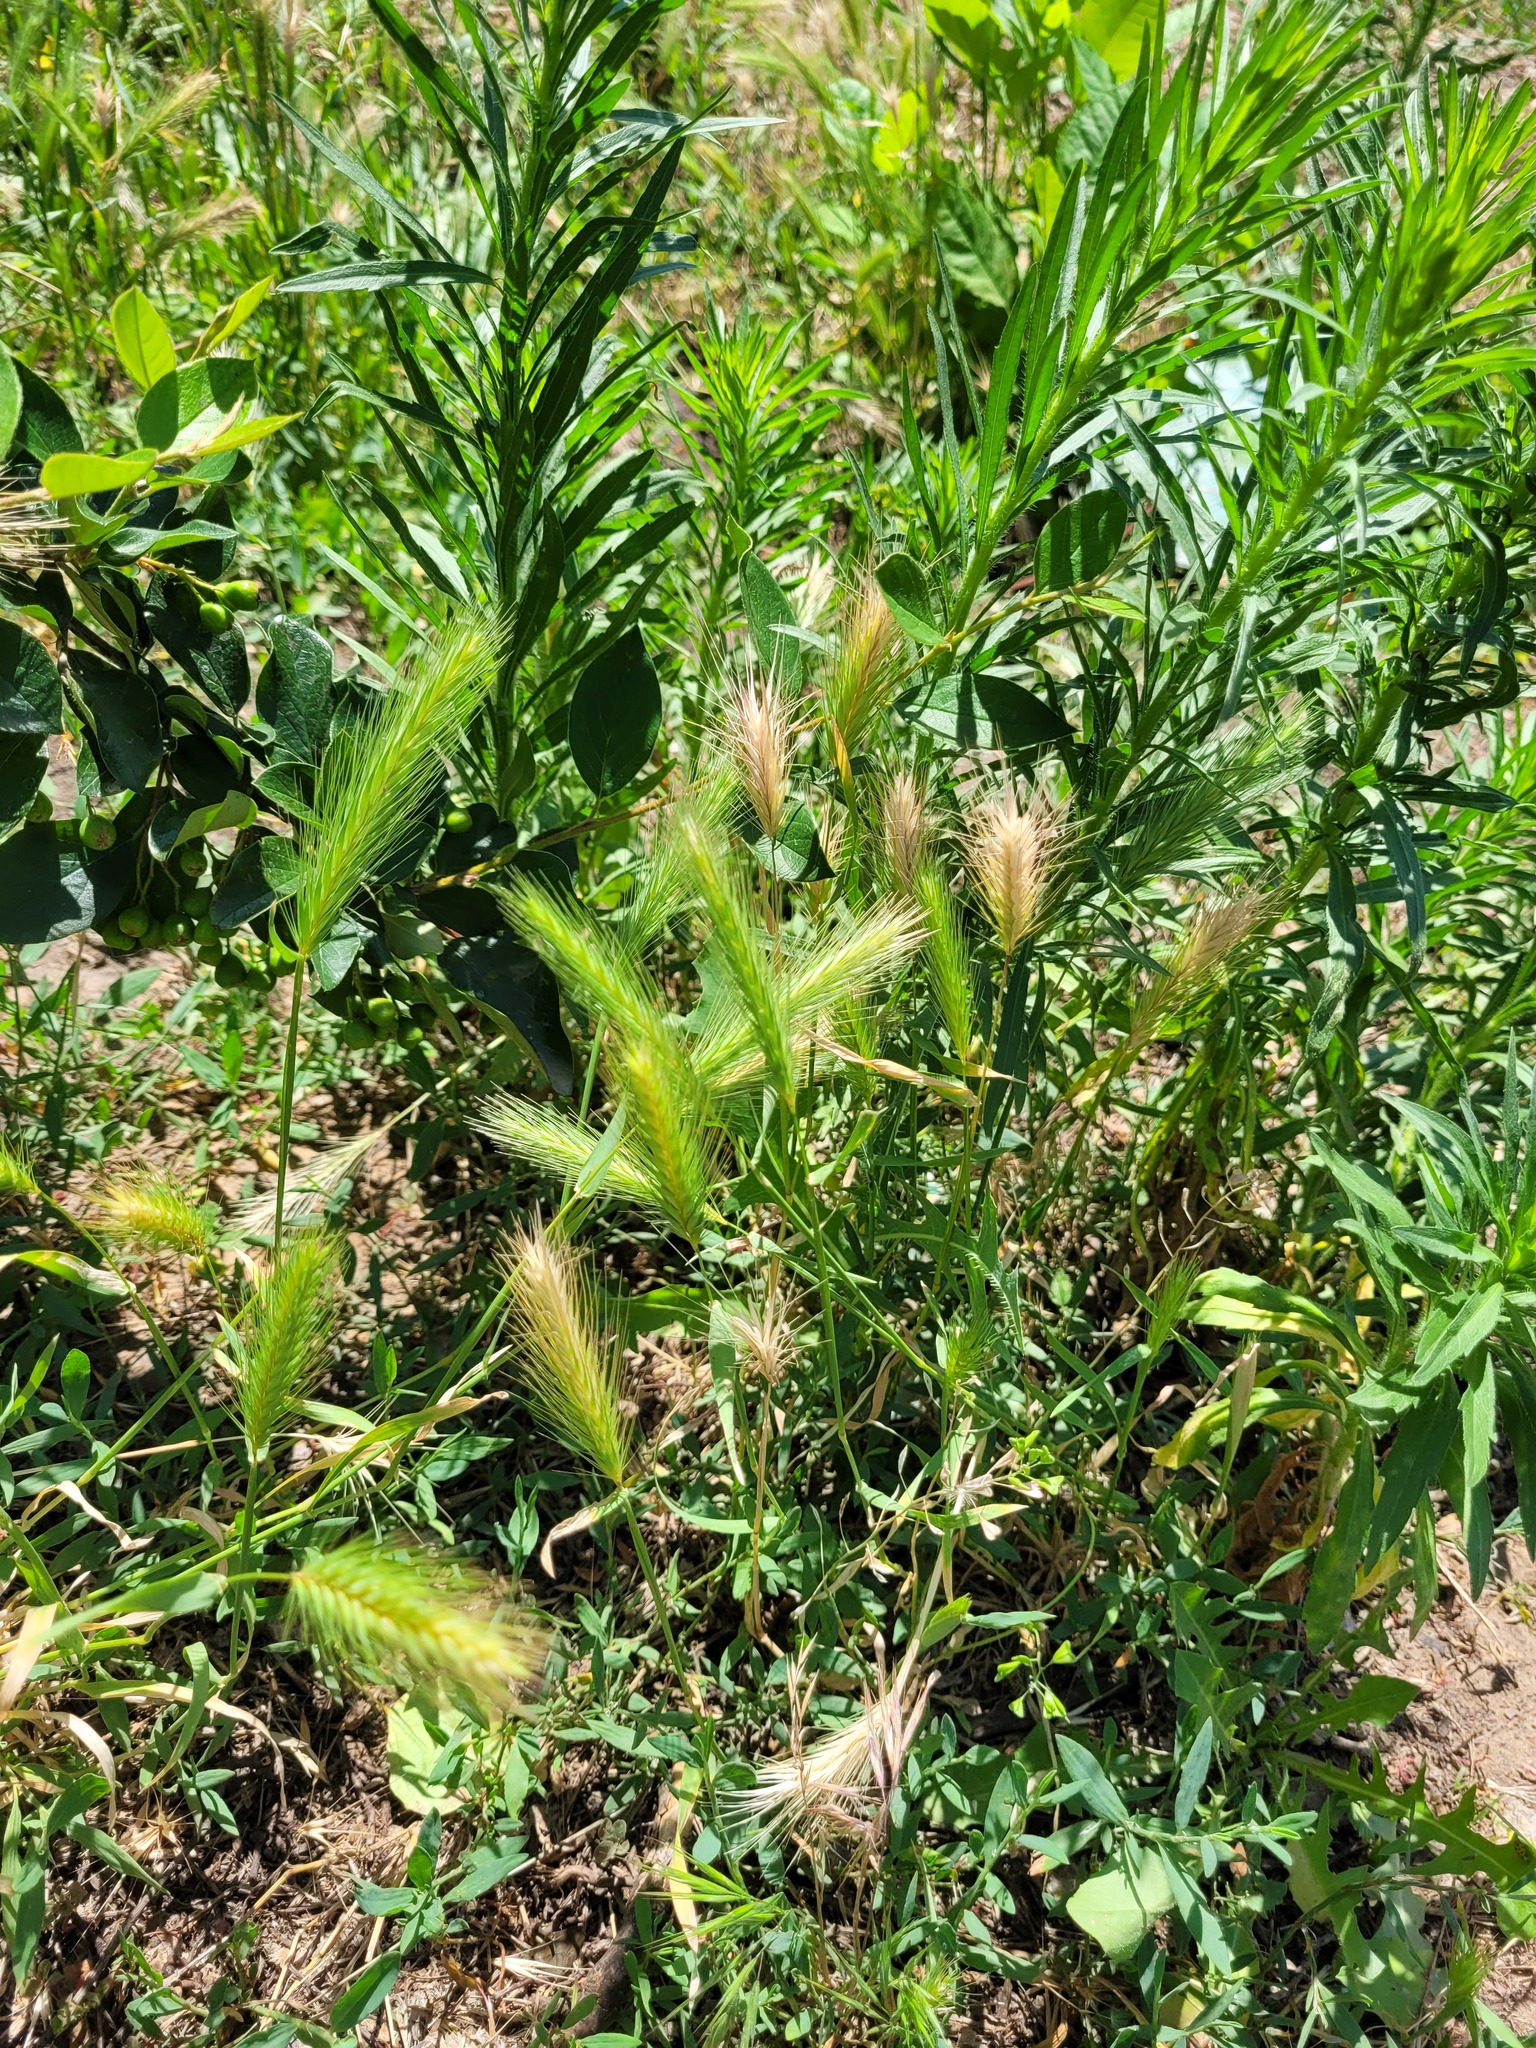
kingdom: Plantae
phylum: Tracheophyta
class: Liliopsida
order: Poales
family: Poaceae
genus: Hordeum
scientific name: Hordeum murinum
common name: Wall barley
